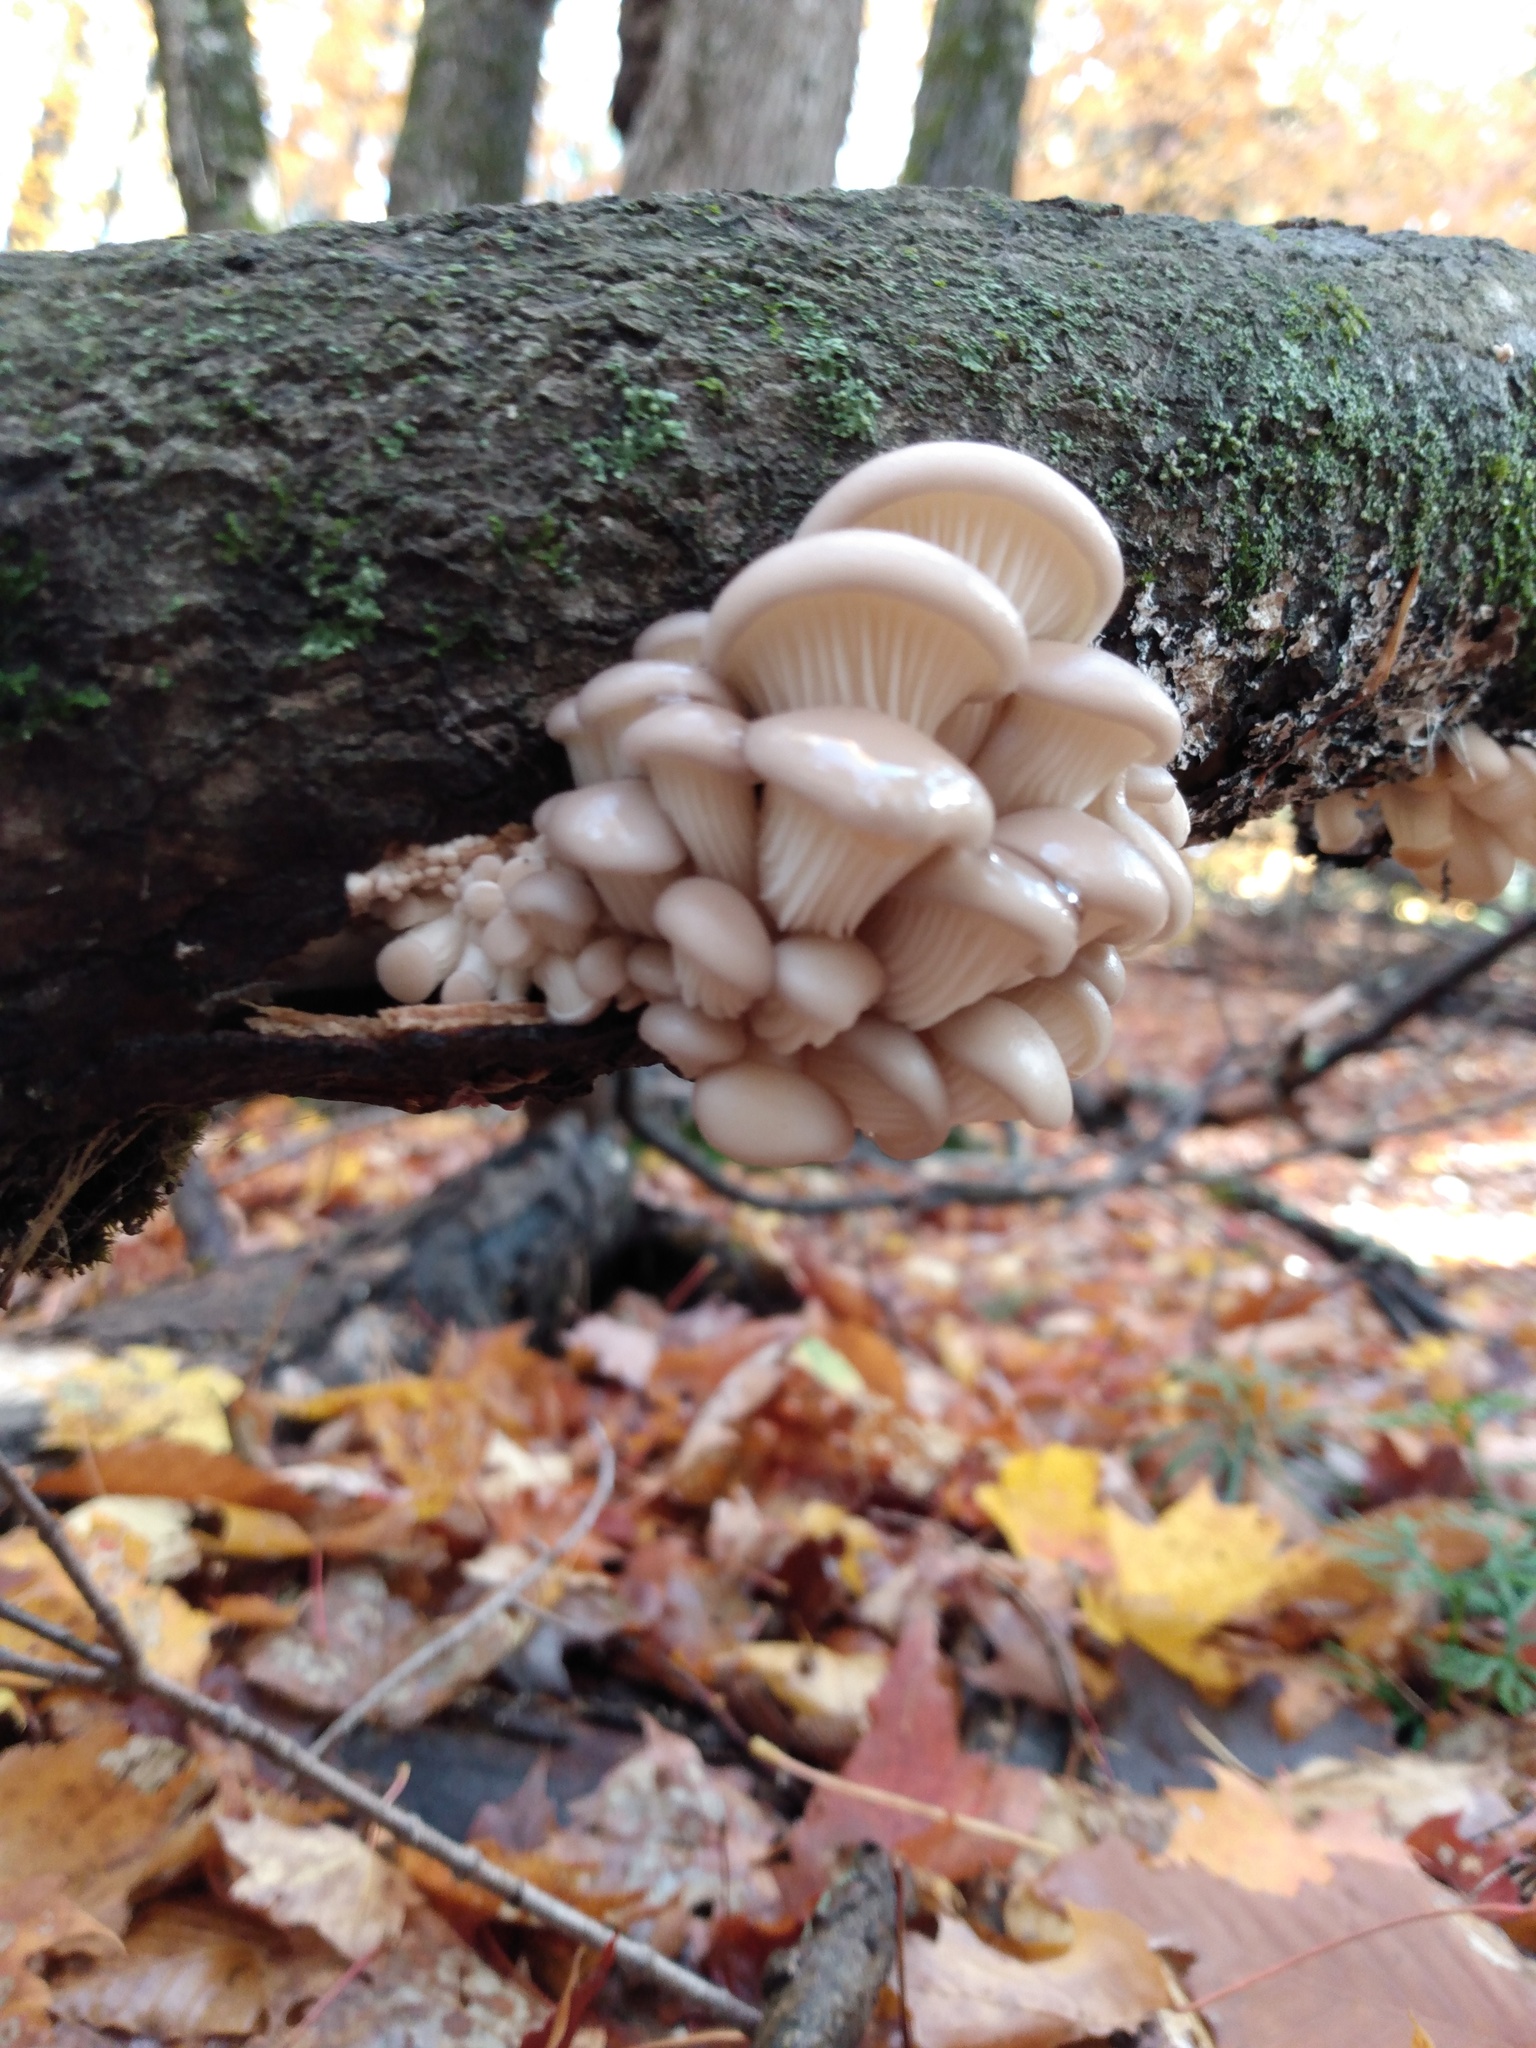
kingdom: Fungi
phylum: Basidiomycota
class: Agaricomycetes
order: Agaricales
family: Pleurotaceae
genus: Pleurotus
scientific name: Pleurotus ostreatus
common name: Oyster mushroom
